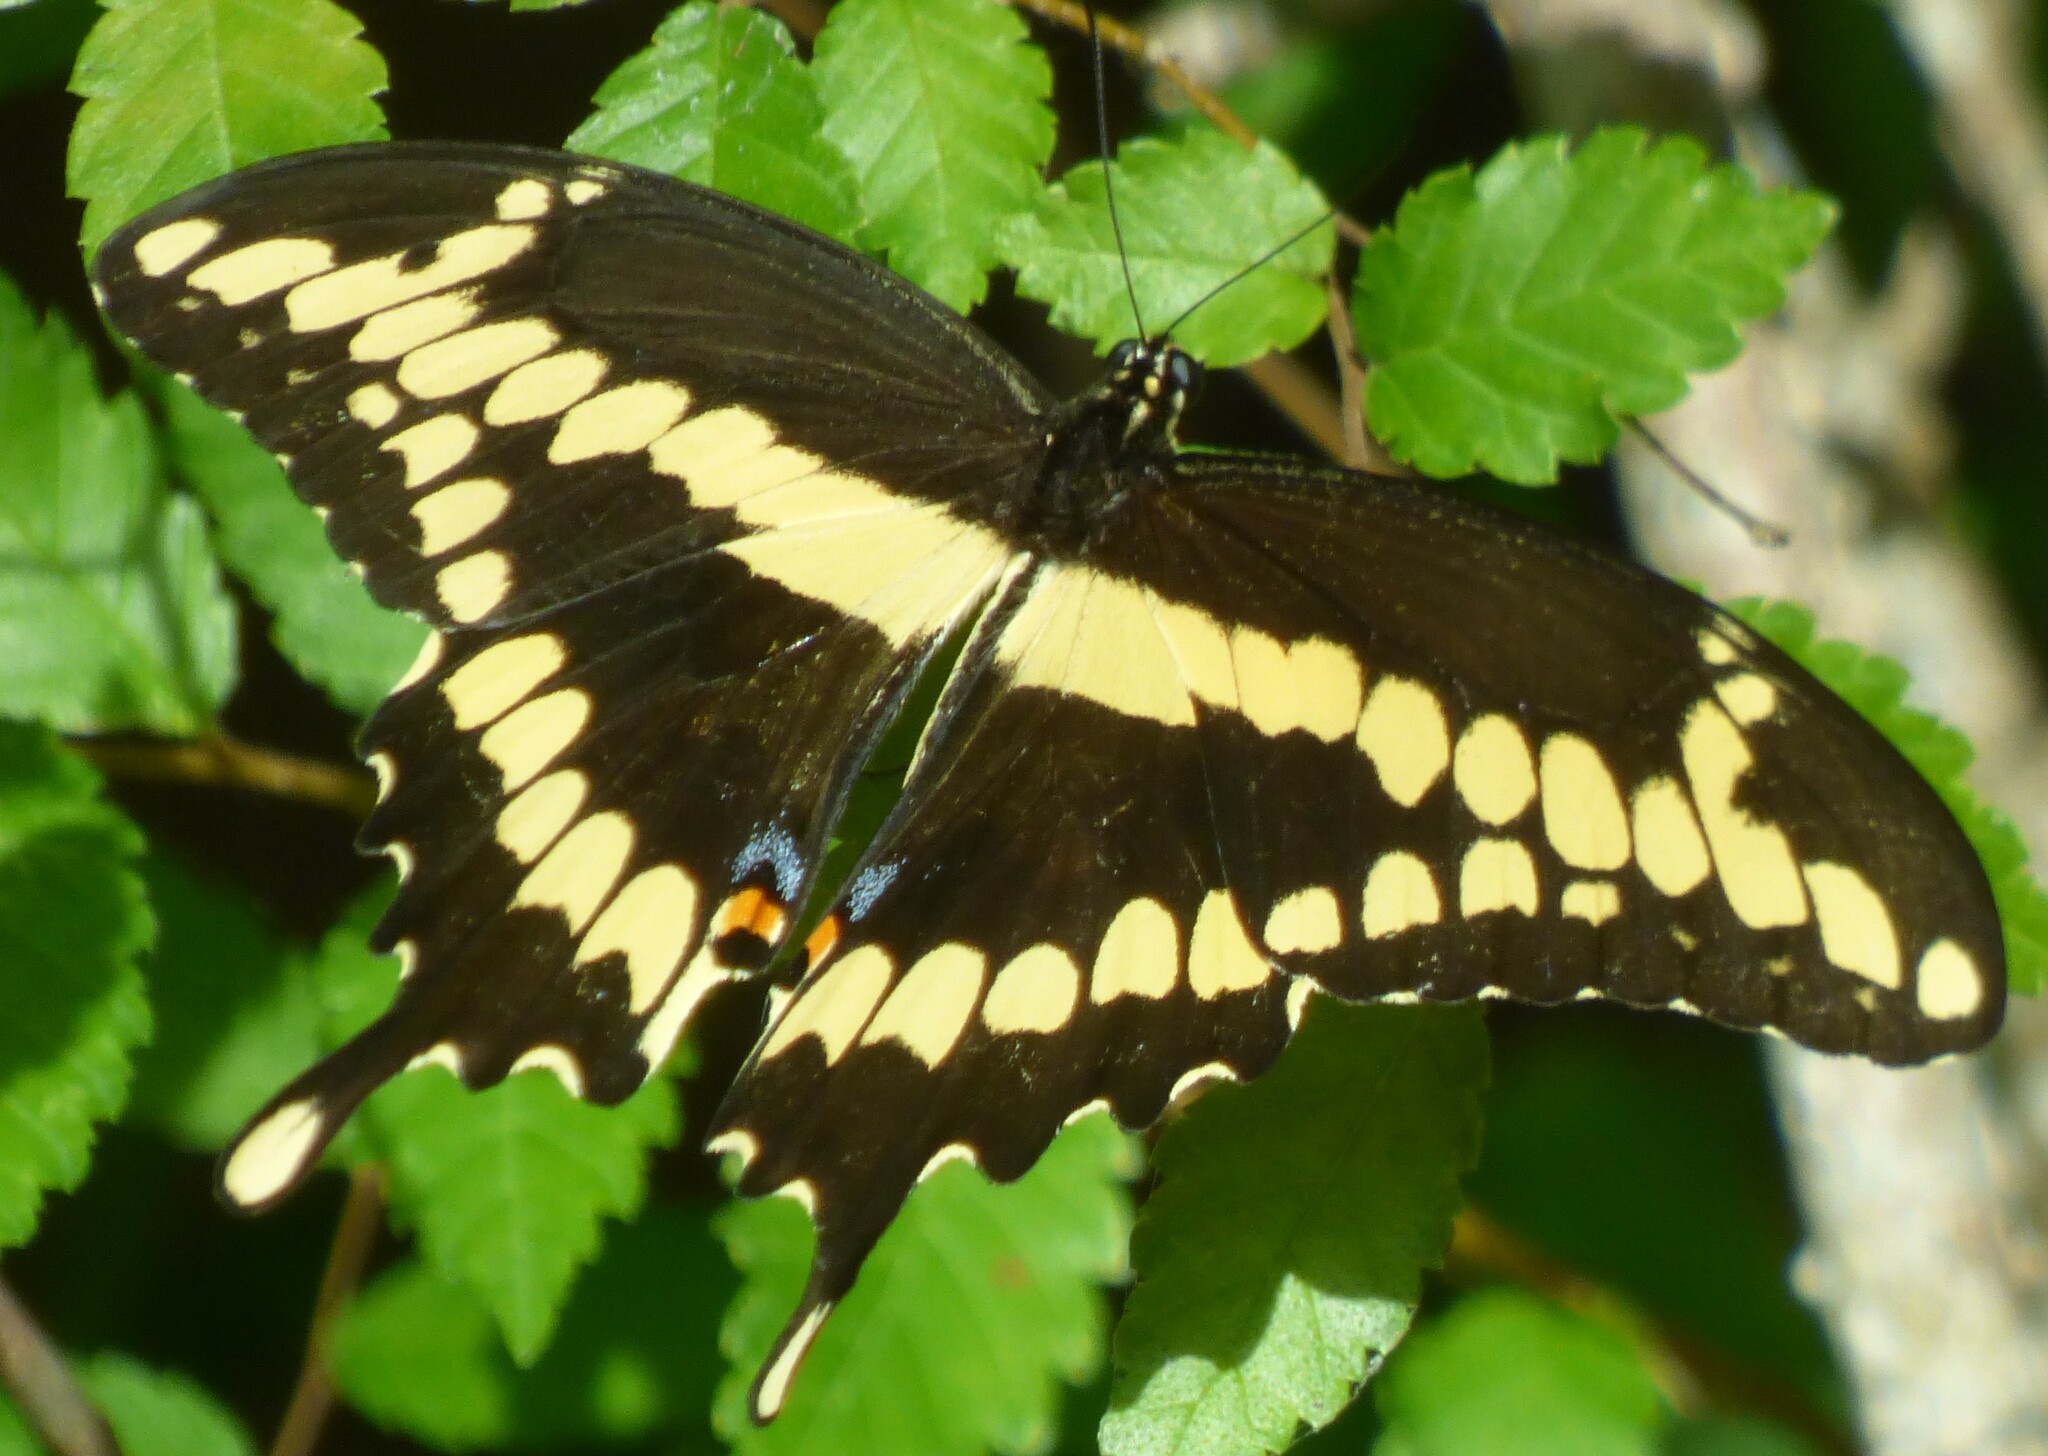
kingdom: Animalia
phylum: Arthropoda
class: Insecta
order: Lepidoptera
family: Papilionidae
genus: Papilio
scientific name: Papilio cresphontes
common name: Giant swallowtail
